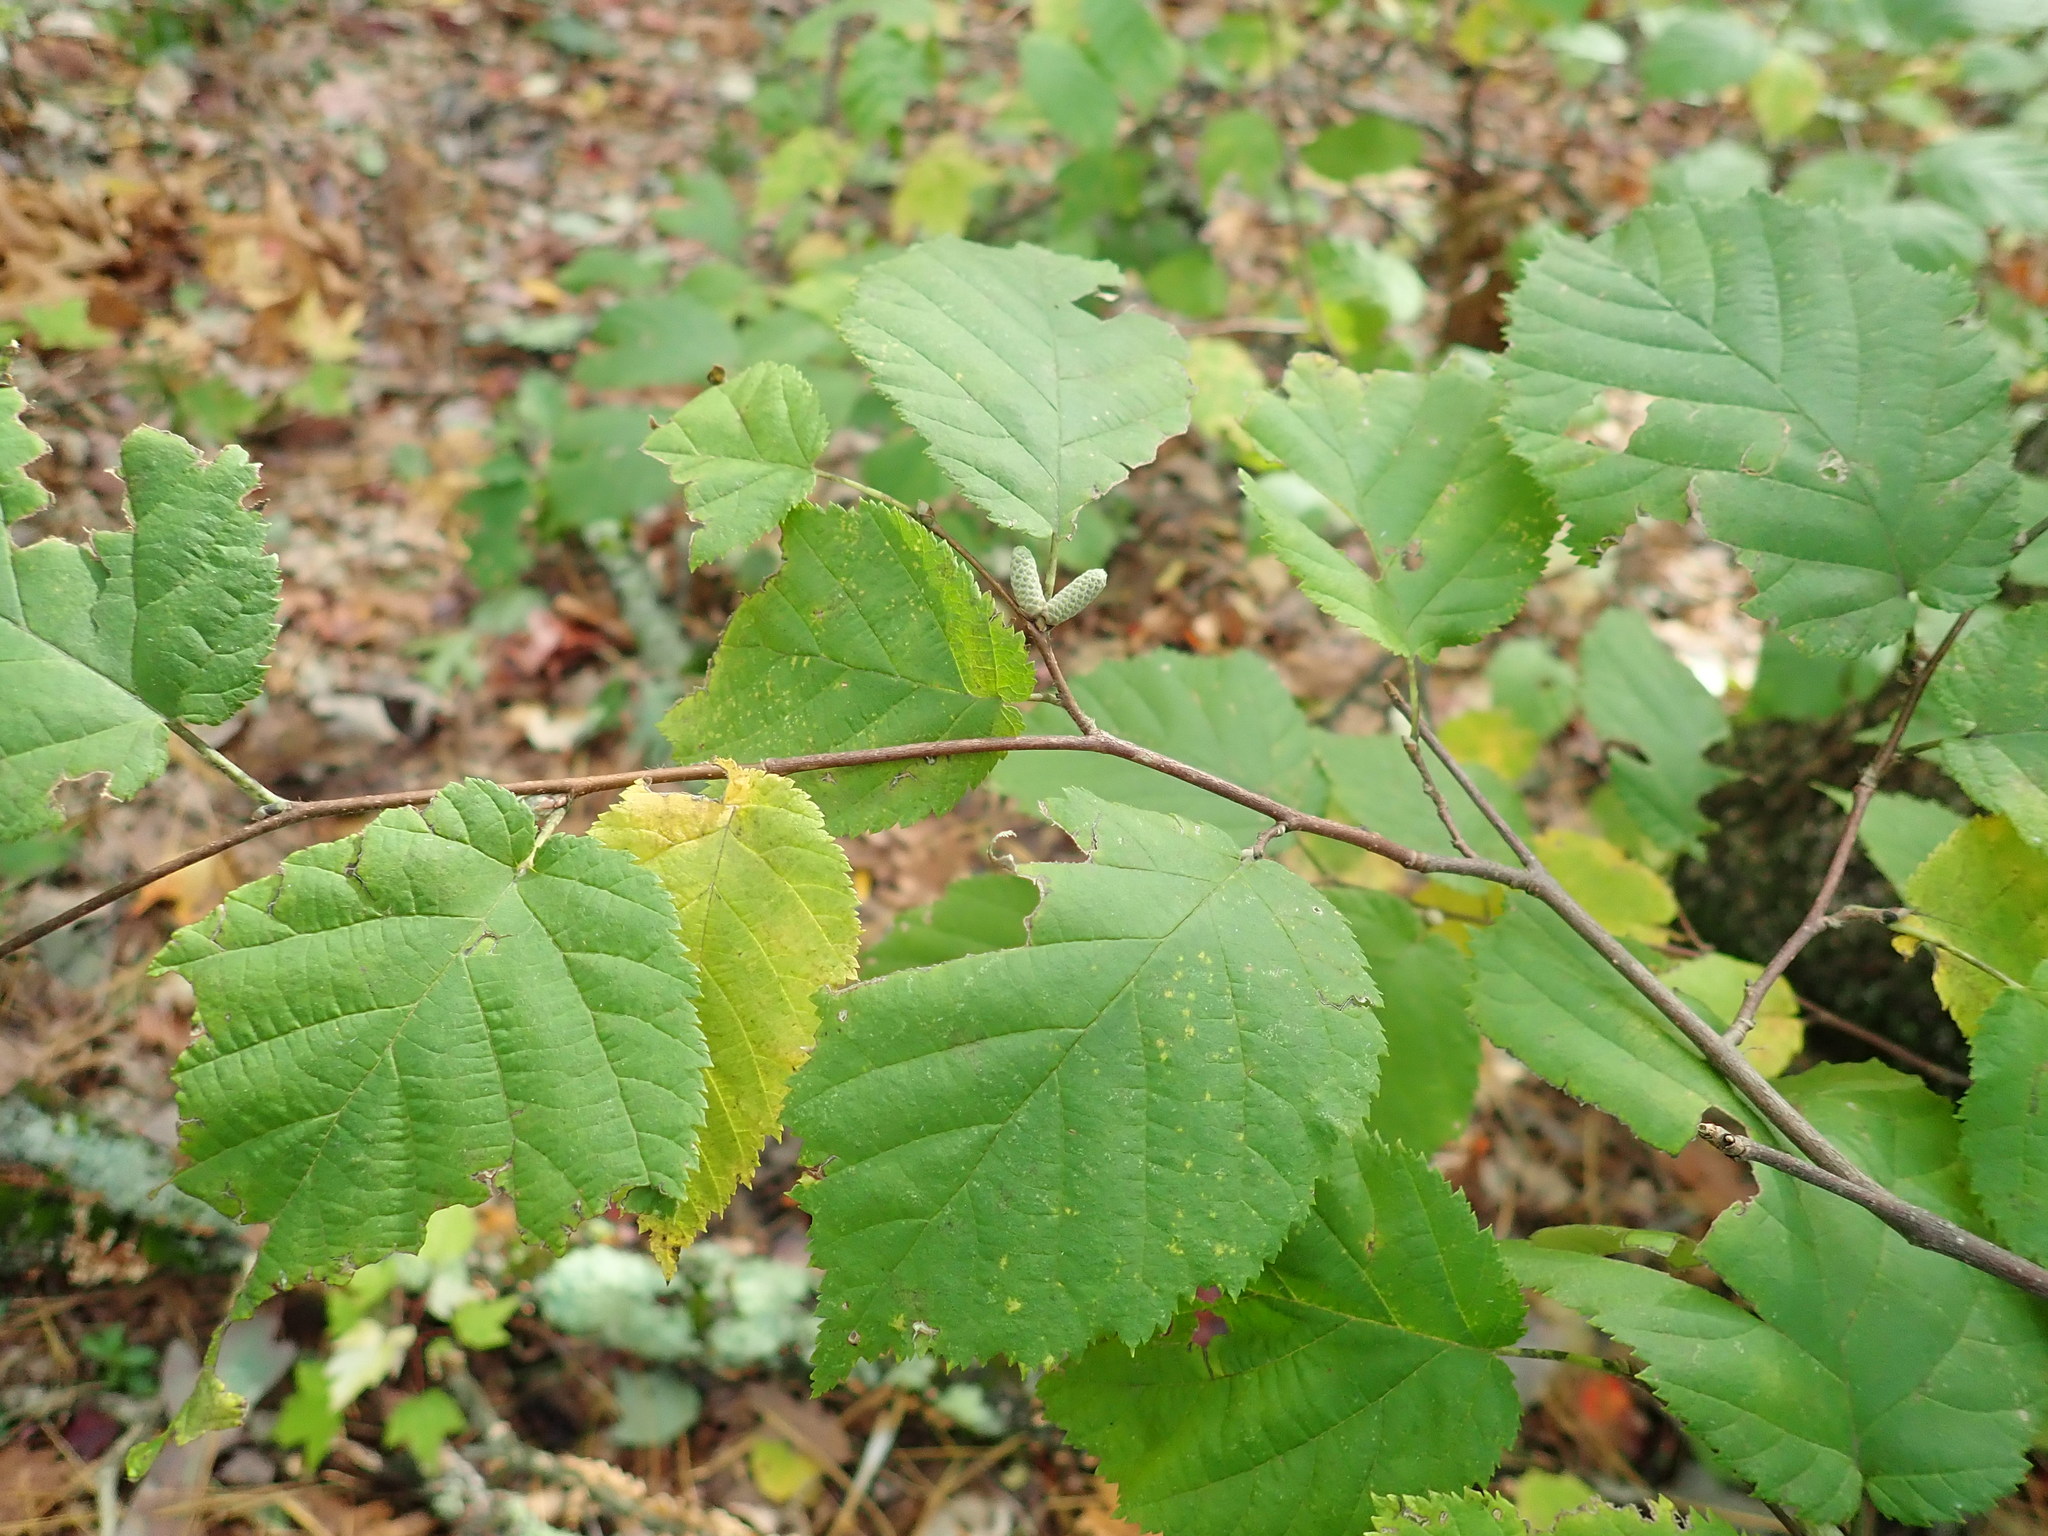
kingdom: Plantae
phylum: Tracheophyta
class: Magnoliopsida
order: Fagales
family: Betulaceae
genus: Corylus
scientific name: Corylus cornuta
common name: Beaked hazel
